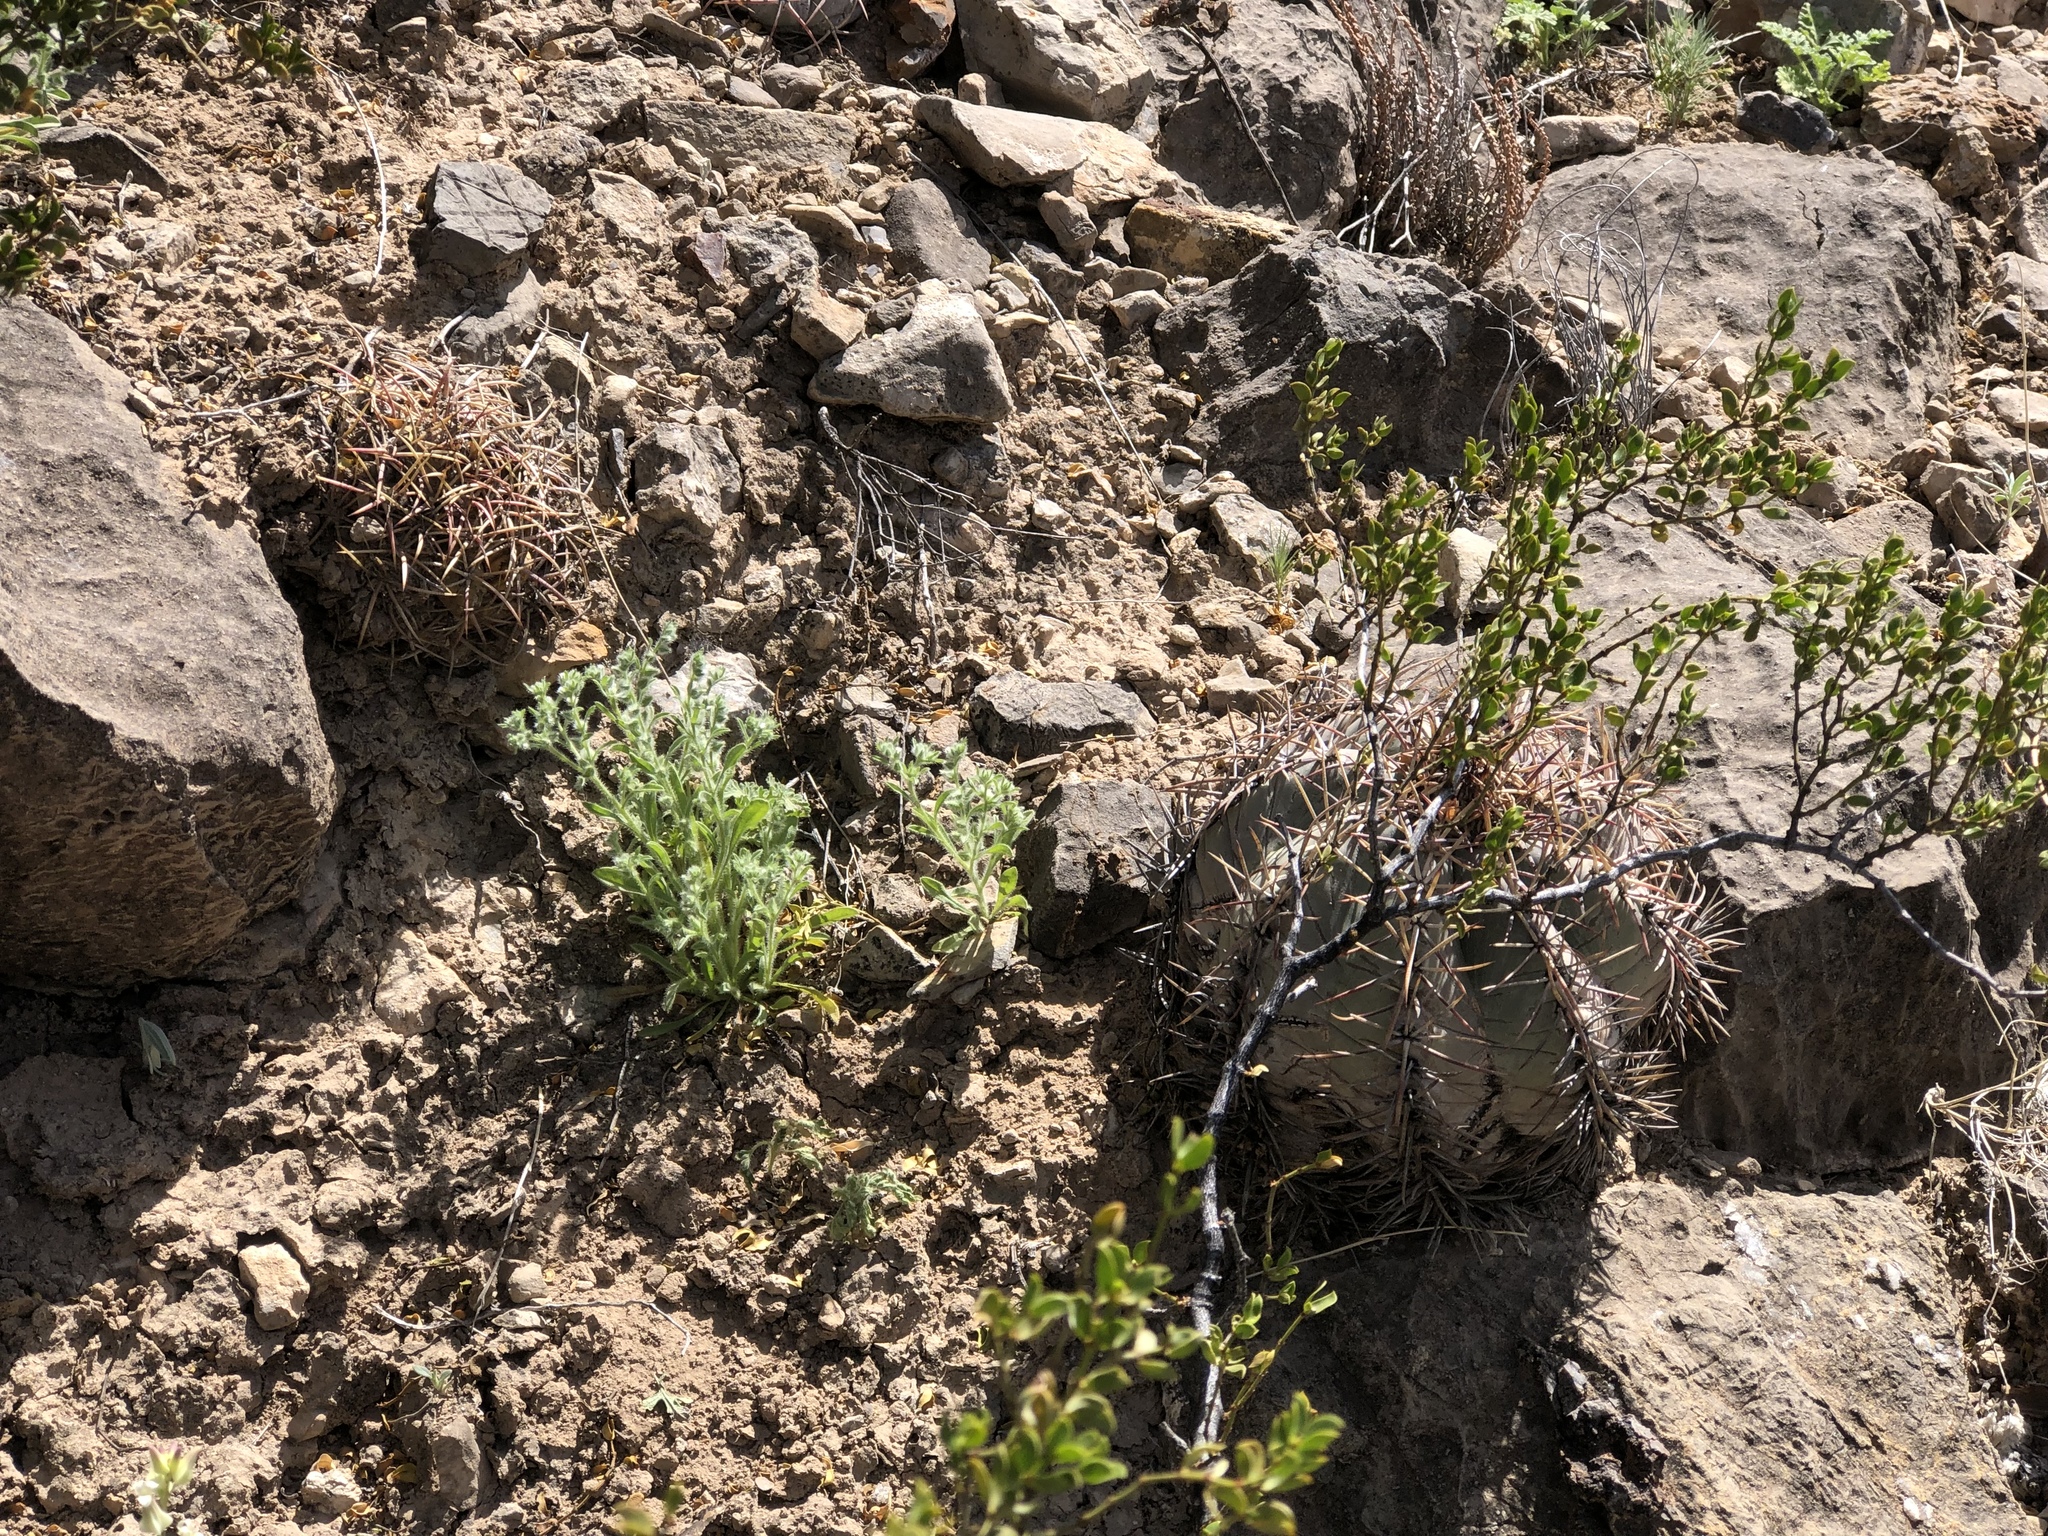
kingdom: Plantae
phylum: Tracheophyta
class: Magnoliopsida
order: Caryophyllales
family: Cactaceae
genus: Echinocactus
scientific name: Echinocactus horizonthalonius
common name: Devilshead
